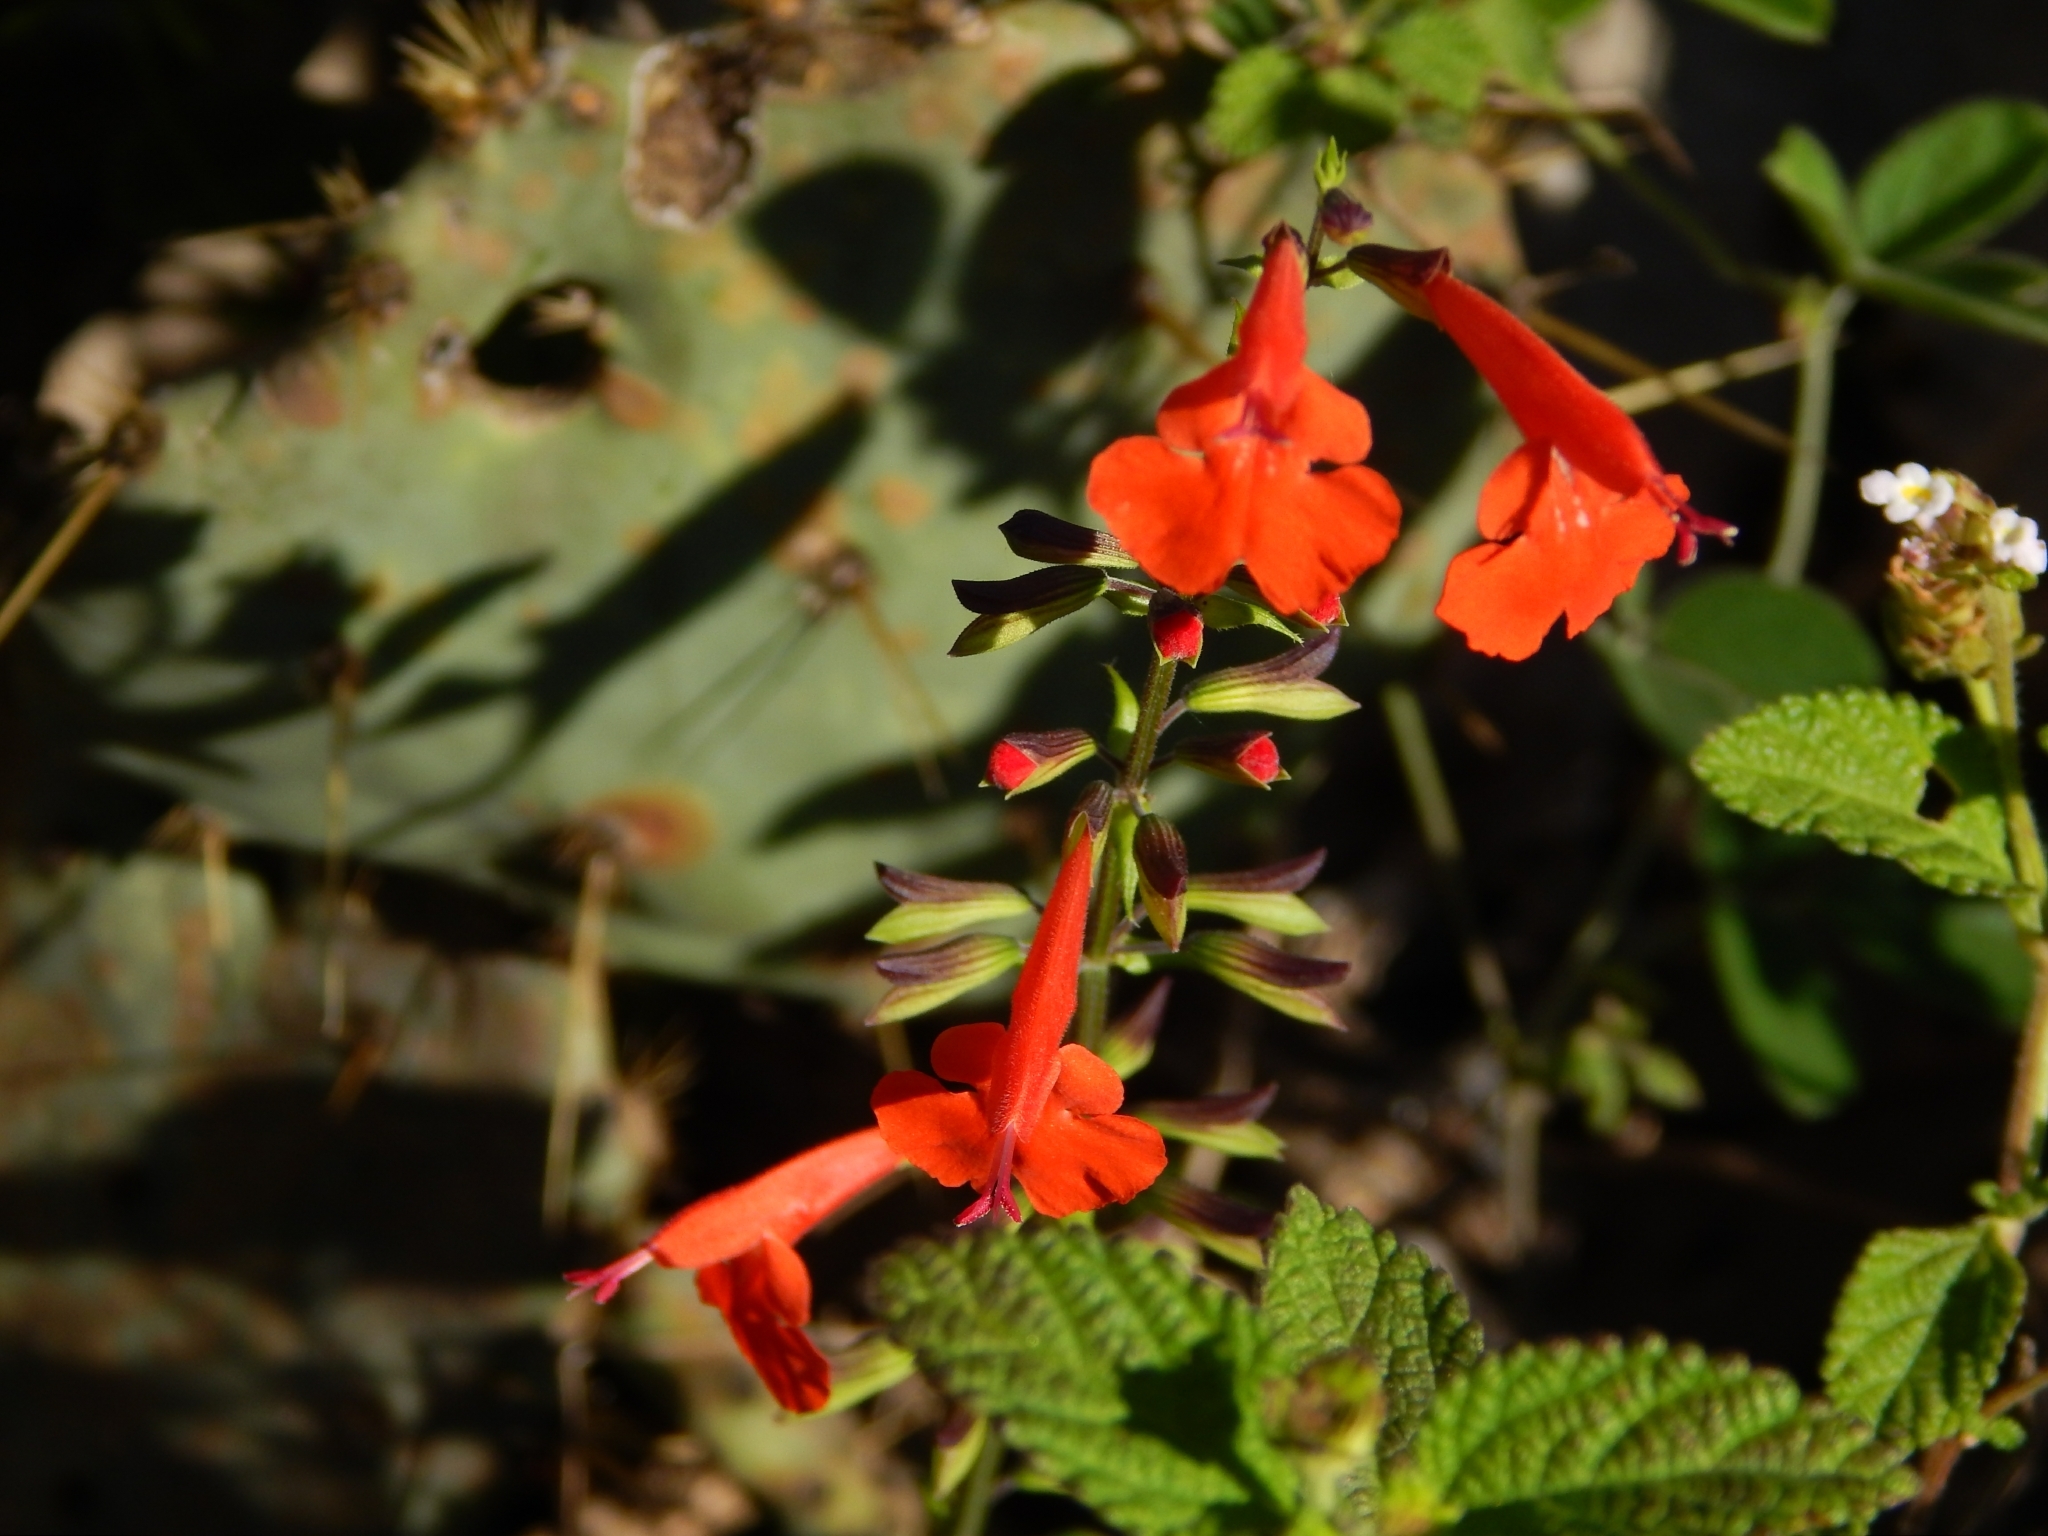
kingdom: Plantae
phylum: Tracheophyta
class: Magnoliopsida
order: Lamiales
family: Lamiaceae
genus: Salvia
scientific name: Salvia coccinea
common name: Blood sage
